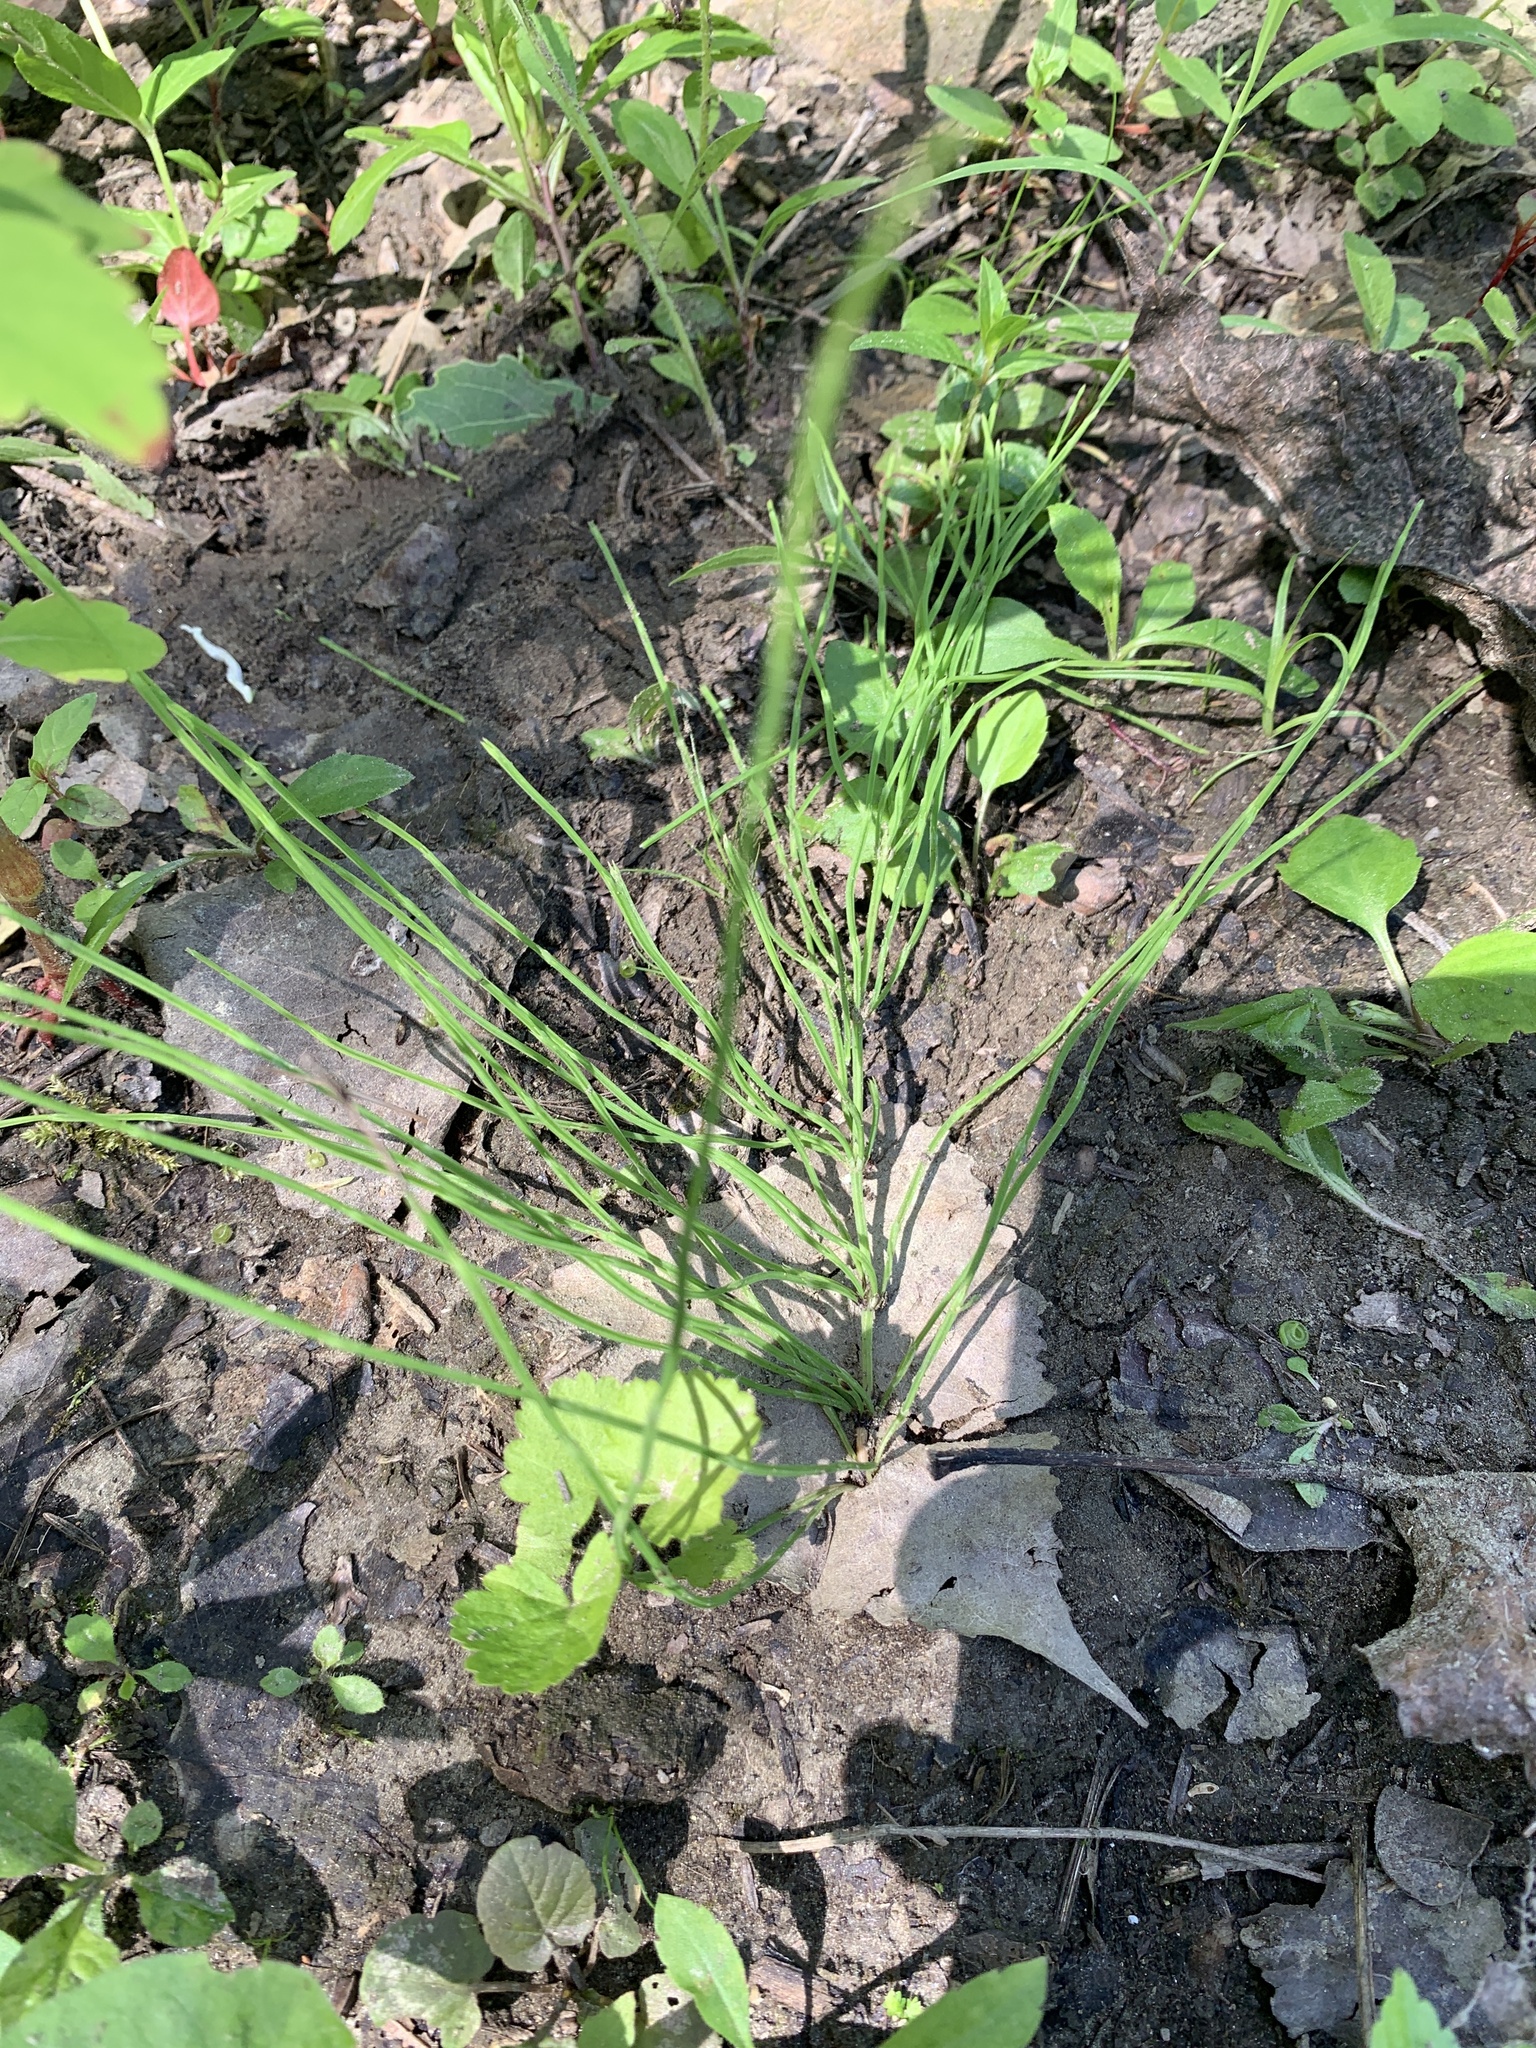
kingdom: Plantae
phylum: Tracheophyta
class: Polypodiopsida
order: Equisetales
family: Equisetaceae
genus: Equisetum
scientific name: Equisetum arvense
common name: Field horsetail
